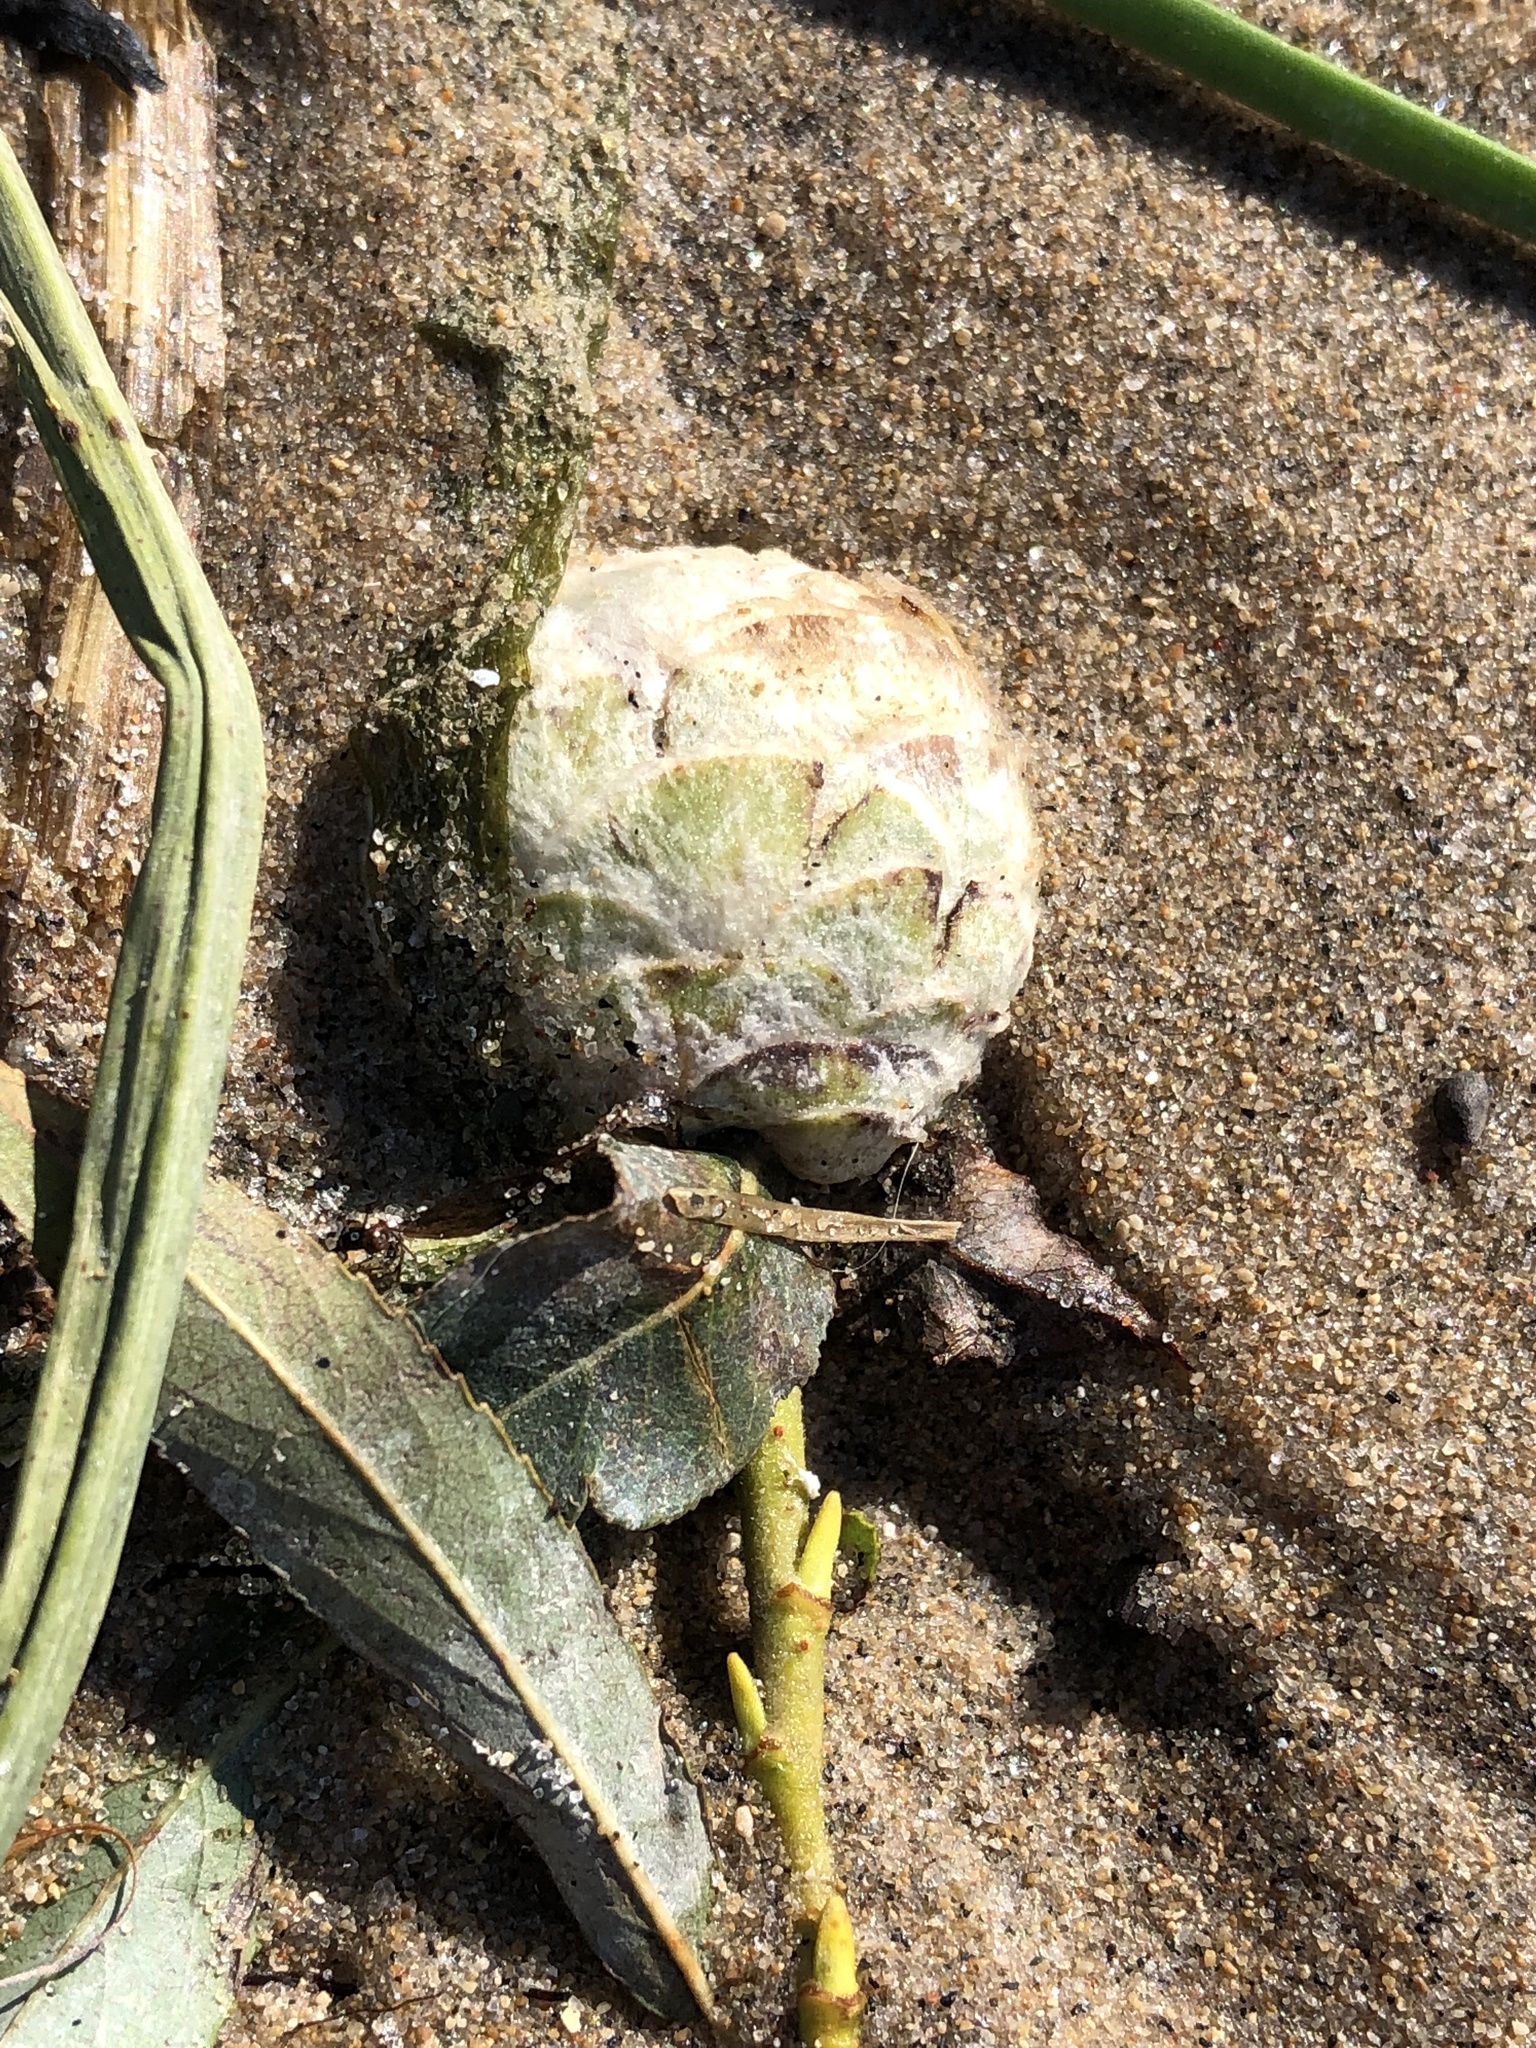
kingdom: Animalia
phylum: Arthropoda
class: Insecta
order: Diptera
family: Cecidomyiidae
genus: Rabdophaga
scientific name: Rabdophaga strobiloides
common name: Willow pinecone gall midge
